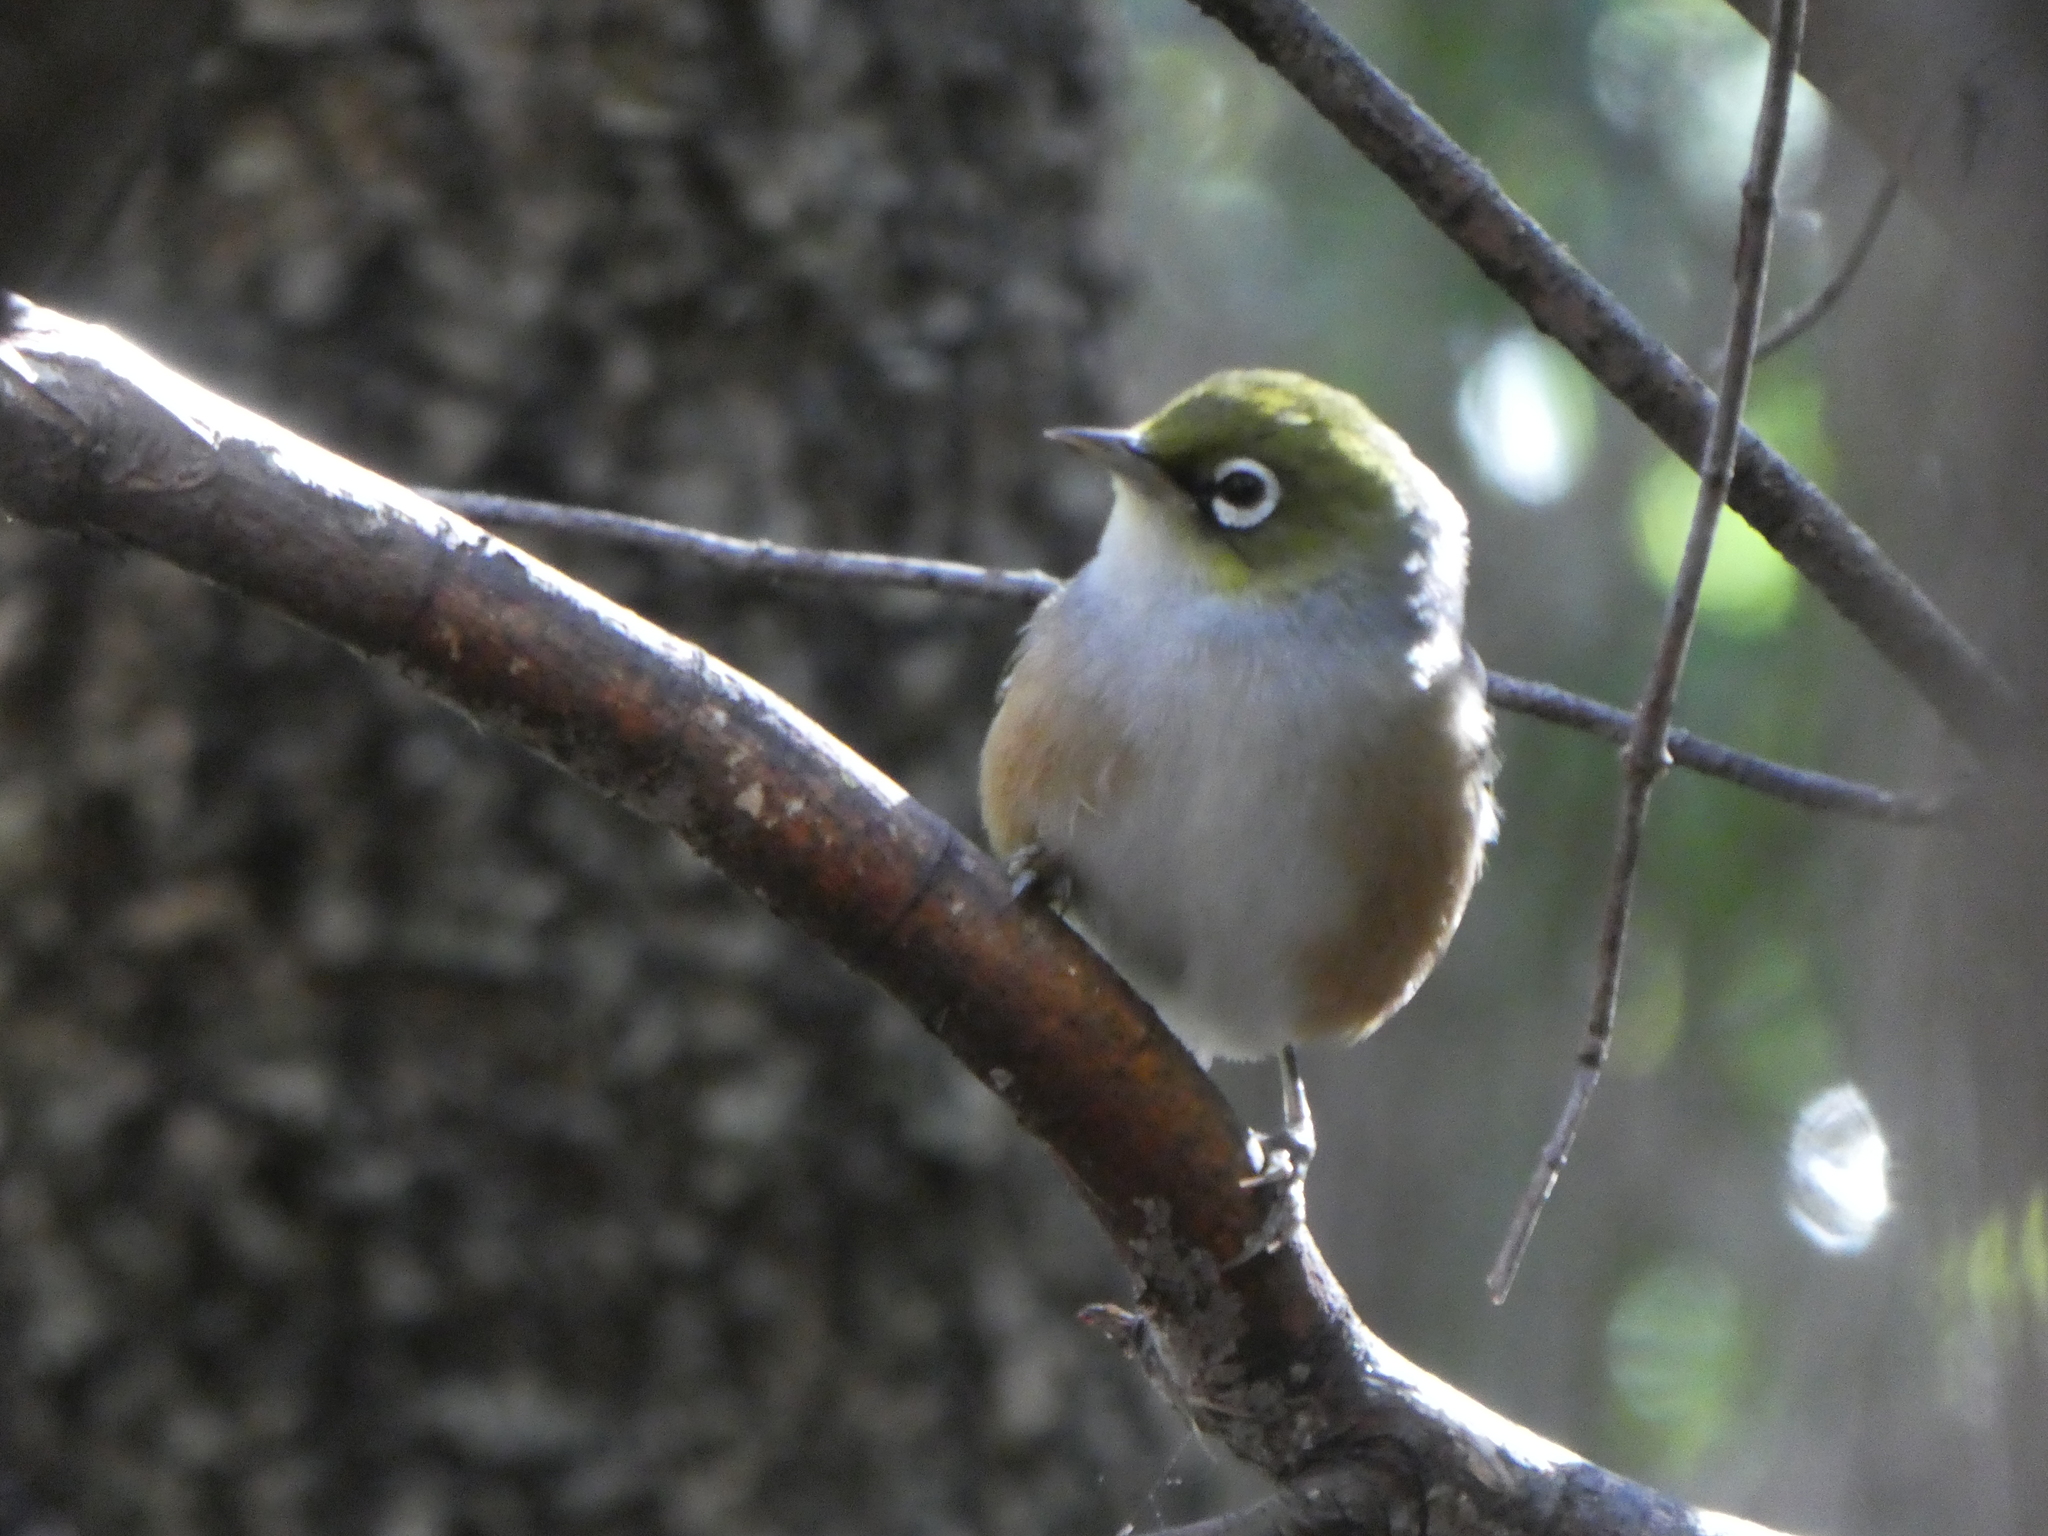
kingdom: Animalia
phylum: Chordata
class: Aves
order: Passeriformes
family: Zosteropidae
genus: Zosterops
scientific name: Zosterops lateralis
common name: Silvereye
